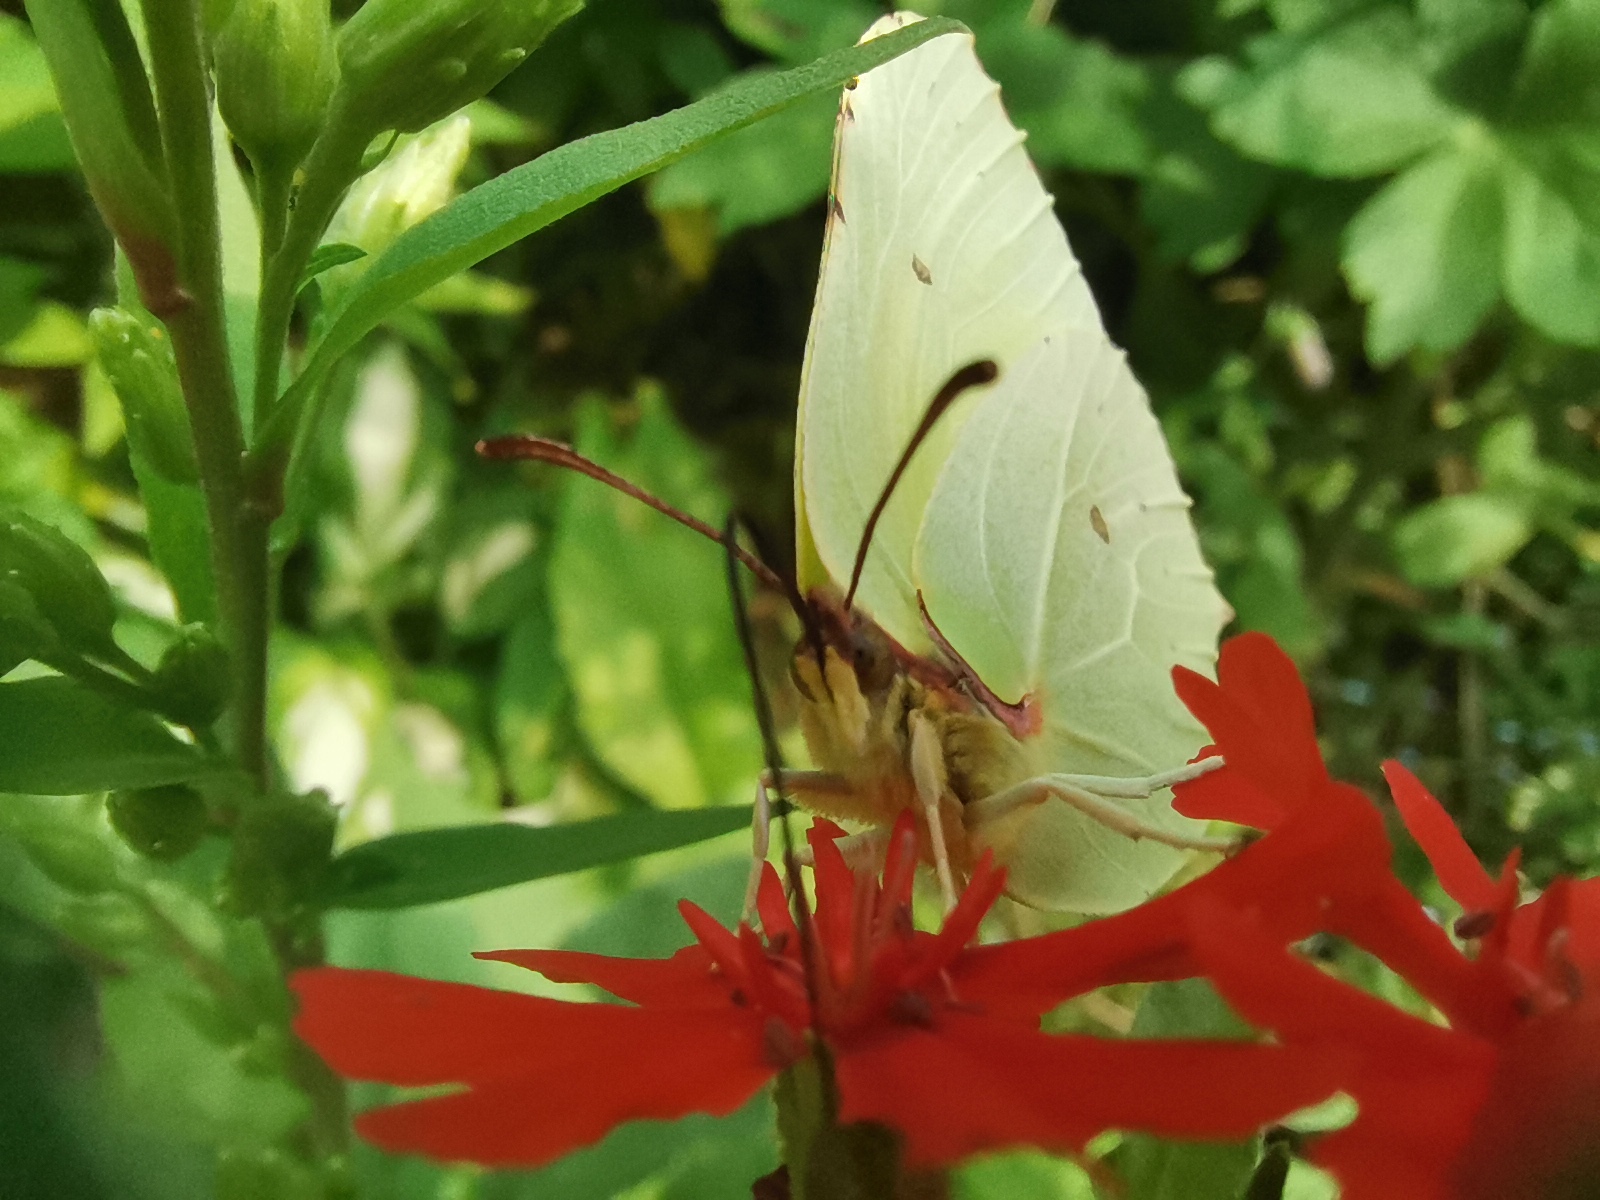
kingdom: Animalia
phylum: Arthropoda
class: Insecta
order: Lepidoptera
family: Pieridae
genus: Gonepteryx
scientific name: Gonepteryx rhamni
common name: Brimstone
